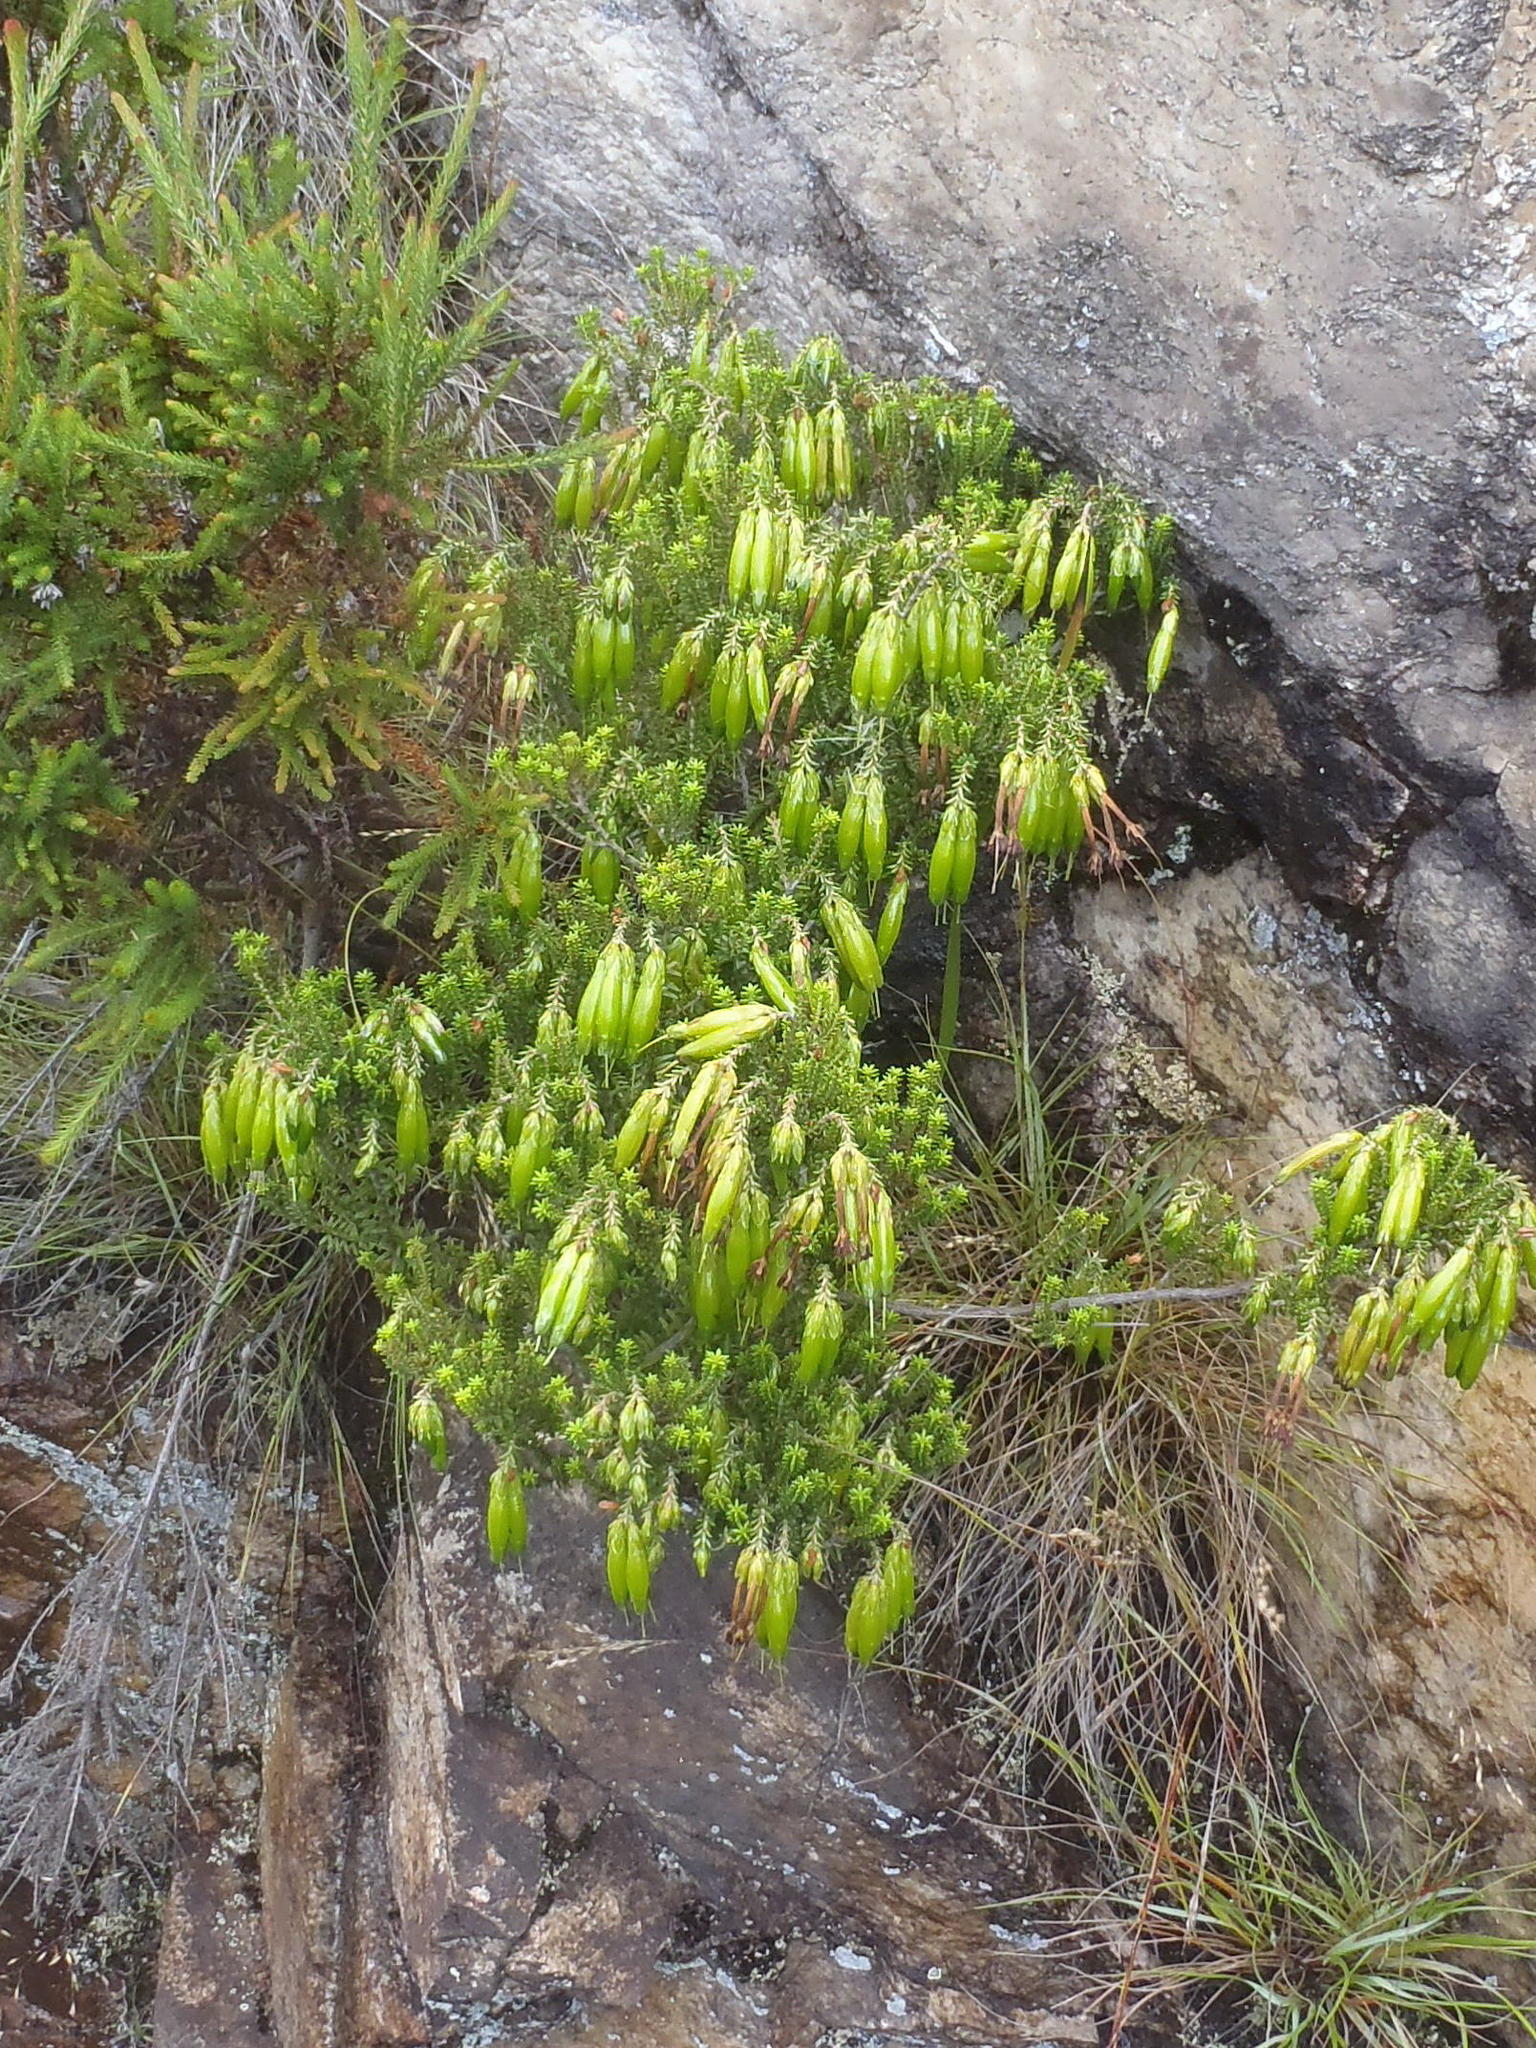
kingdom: Plantae
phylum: Tracheophyta
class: Magnoliopsida
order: Ericales
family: Ericaceae
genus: Erica
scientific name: Erica viridiflora
